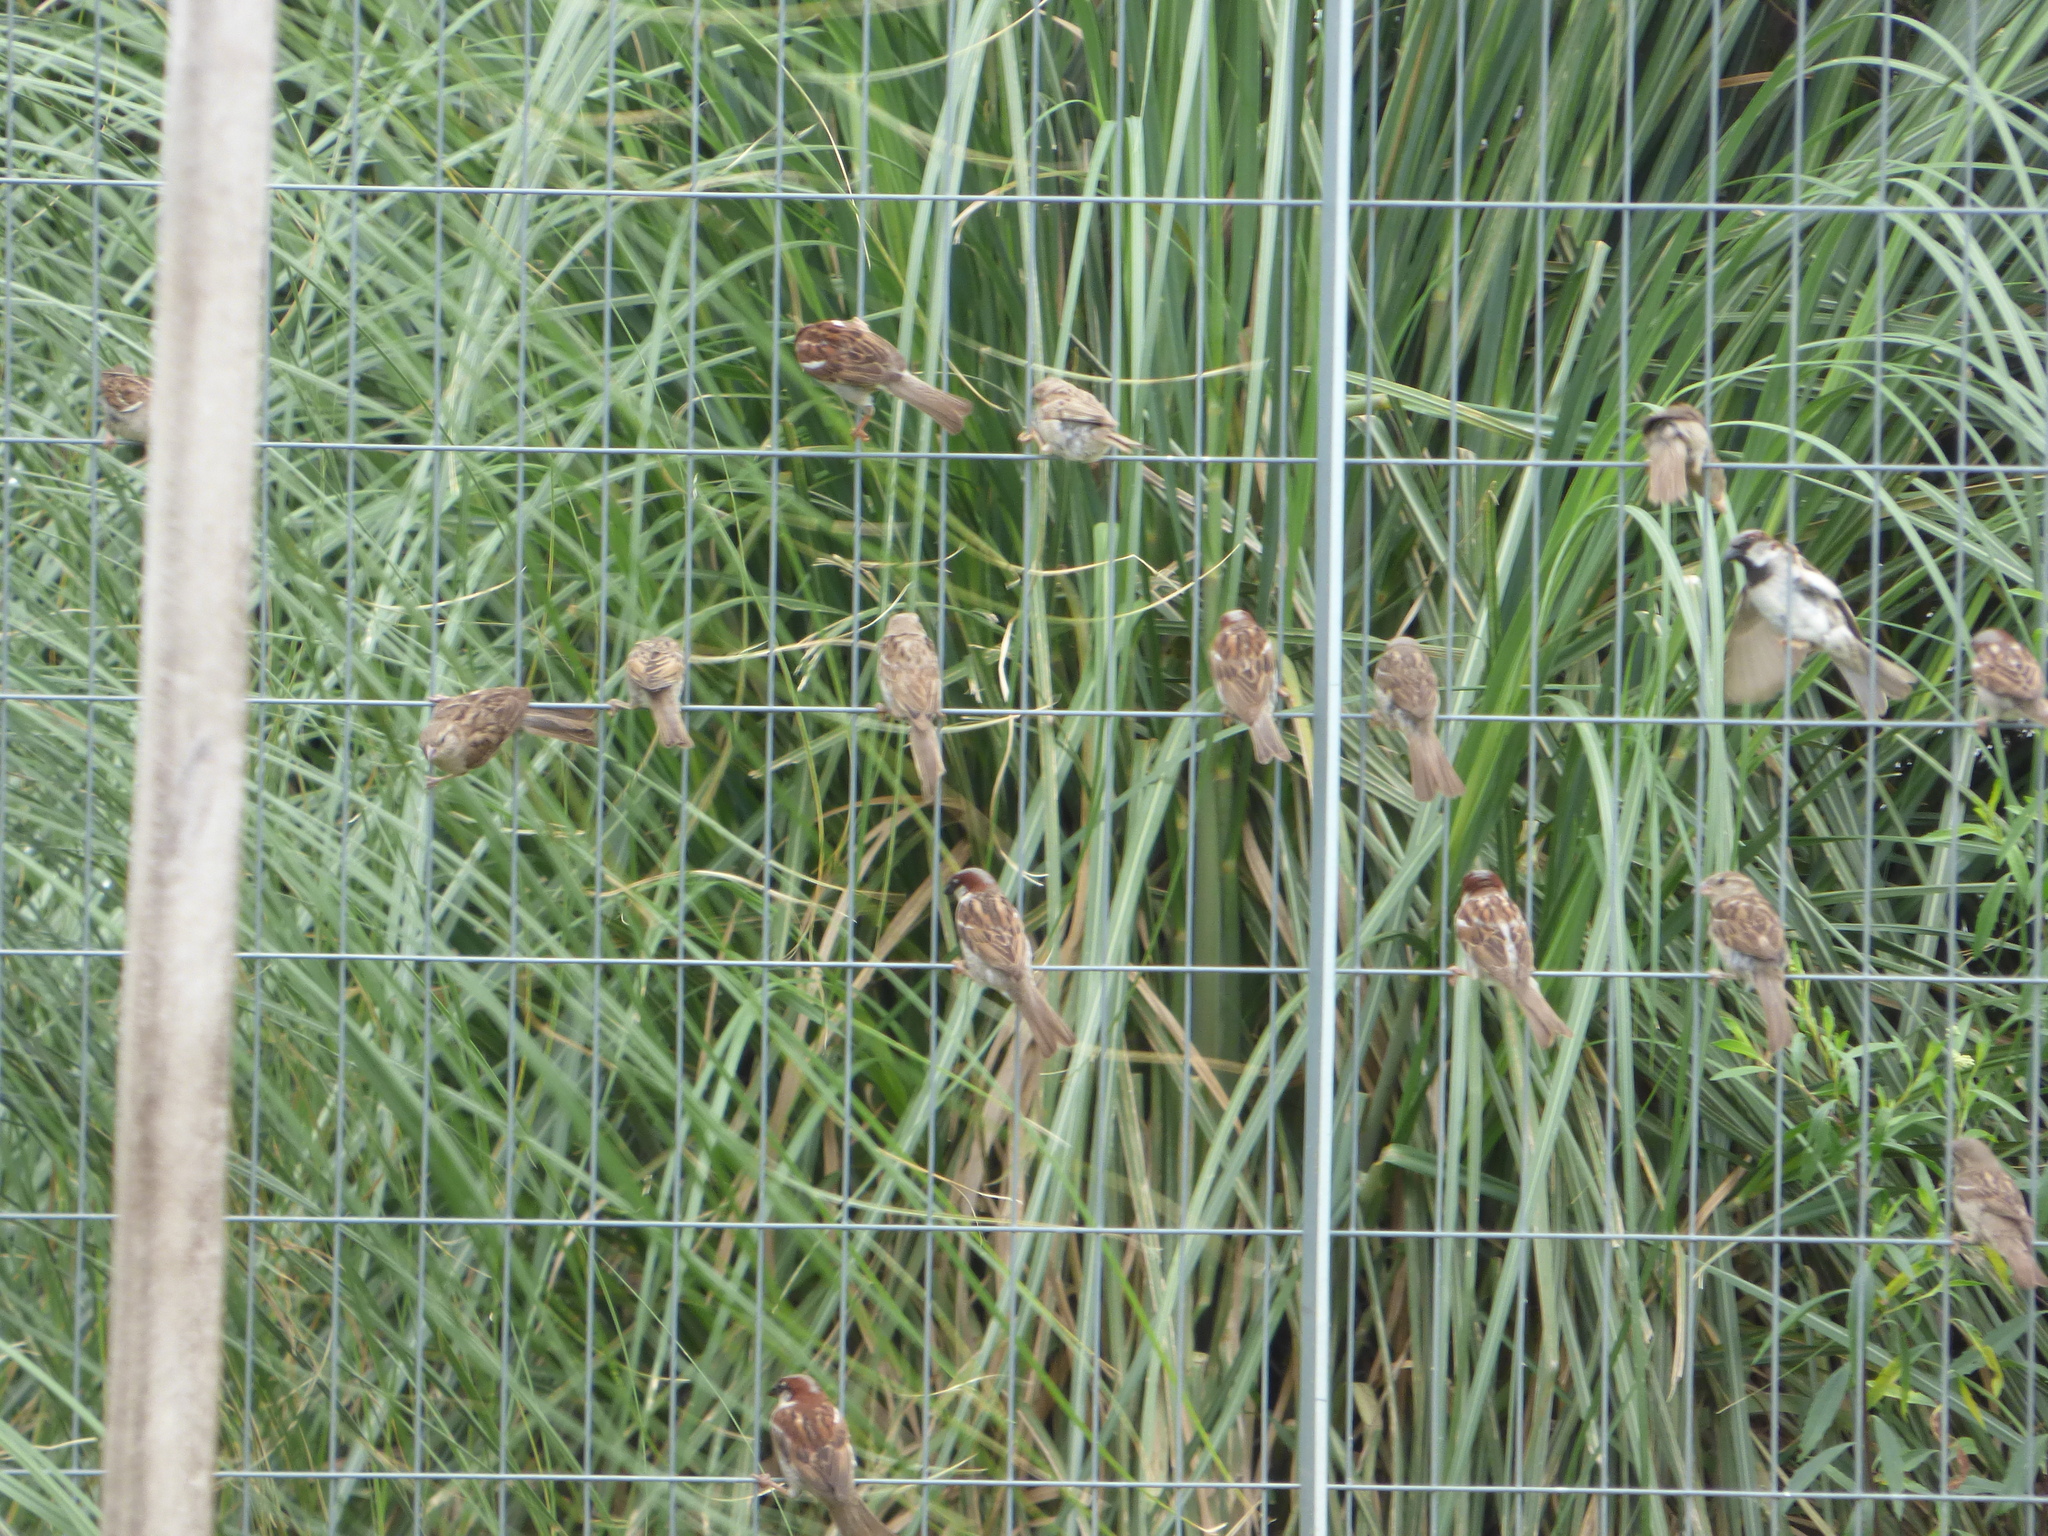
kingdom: Animalia
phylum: Chordata
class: Aves
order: Passeriformes
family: Passeridae
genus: Passer
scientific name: Passer domesticus
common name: House sparrow
